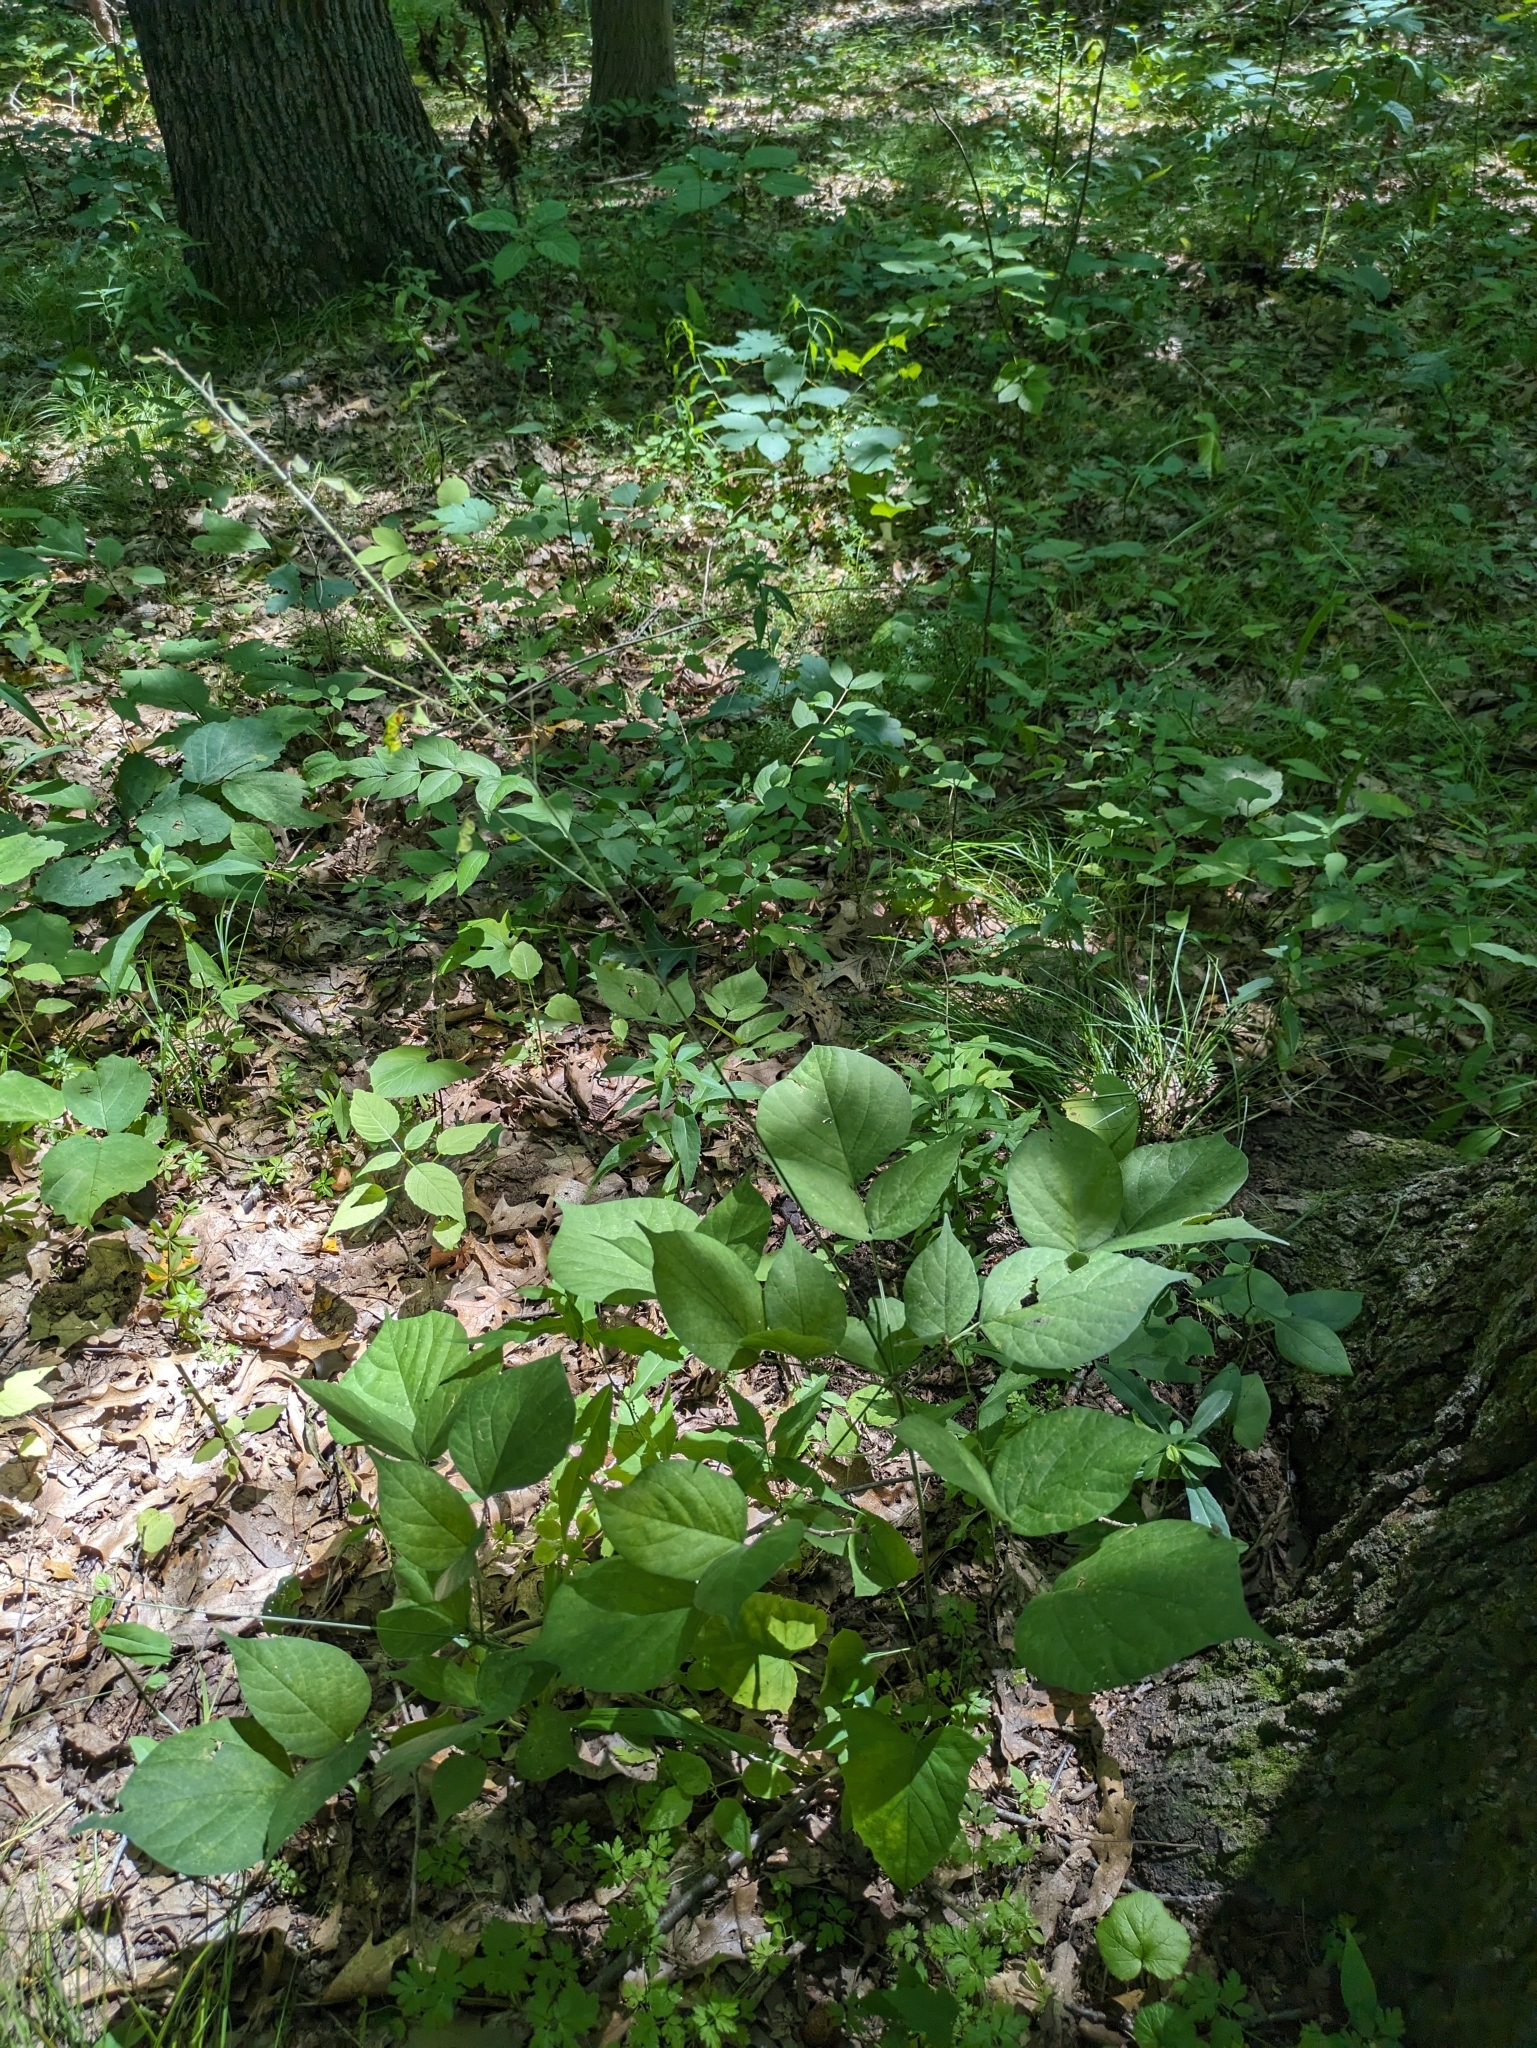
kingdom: Plantae
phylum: Tracheophyta
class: Magnoliopsida
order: Fabales
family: Fabaceae
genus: Hylodesmum
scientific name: Hylodesmum glutinosum
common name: Clustered-leaved tick-trefoil
